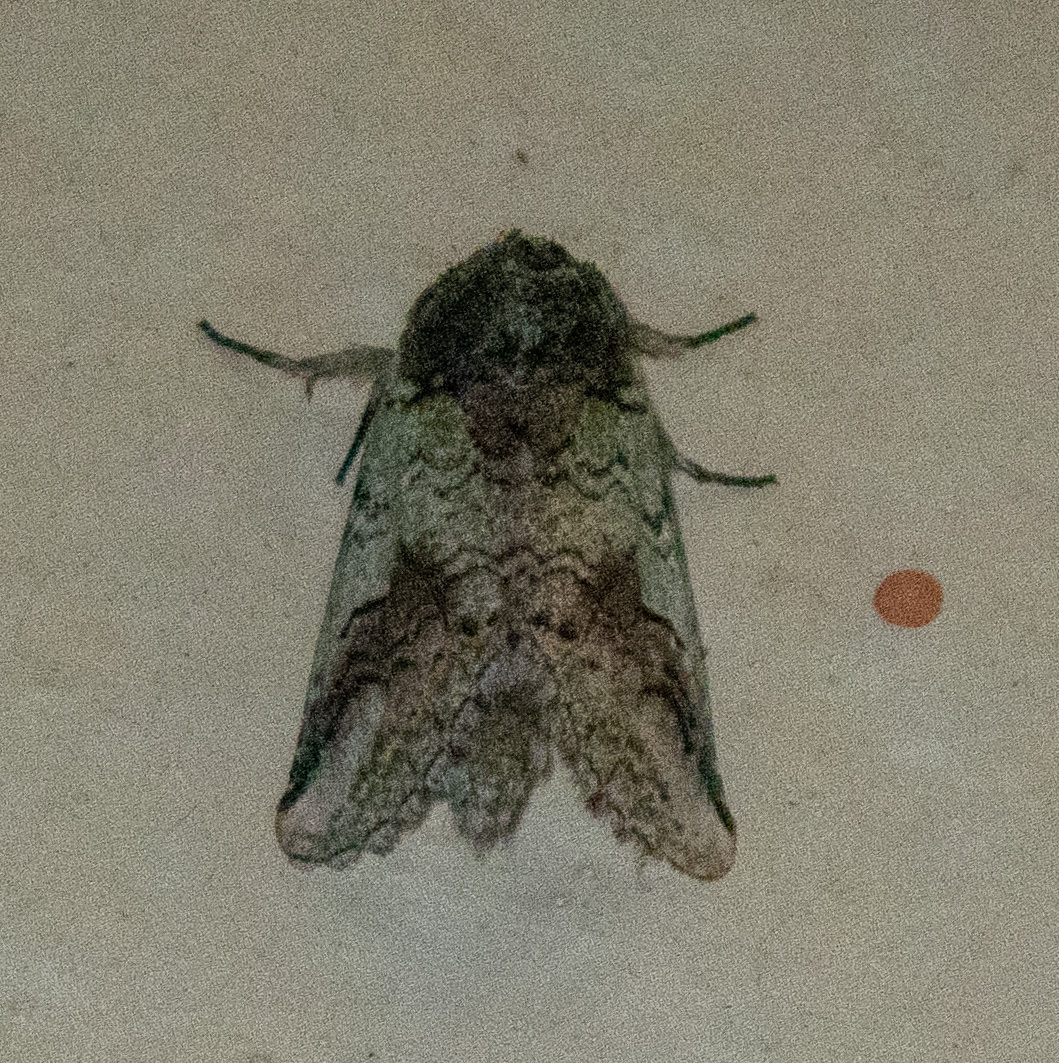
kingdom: Animalia
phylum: Arthropoda
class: Insecta
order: Lepidoptera
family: Notodontidae
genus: Litodonta
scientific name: Litodonta hydromeli
